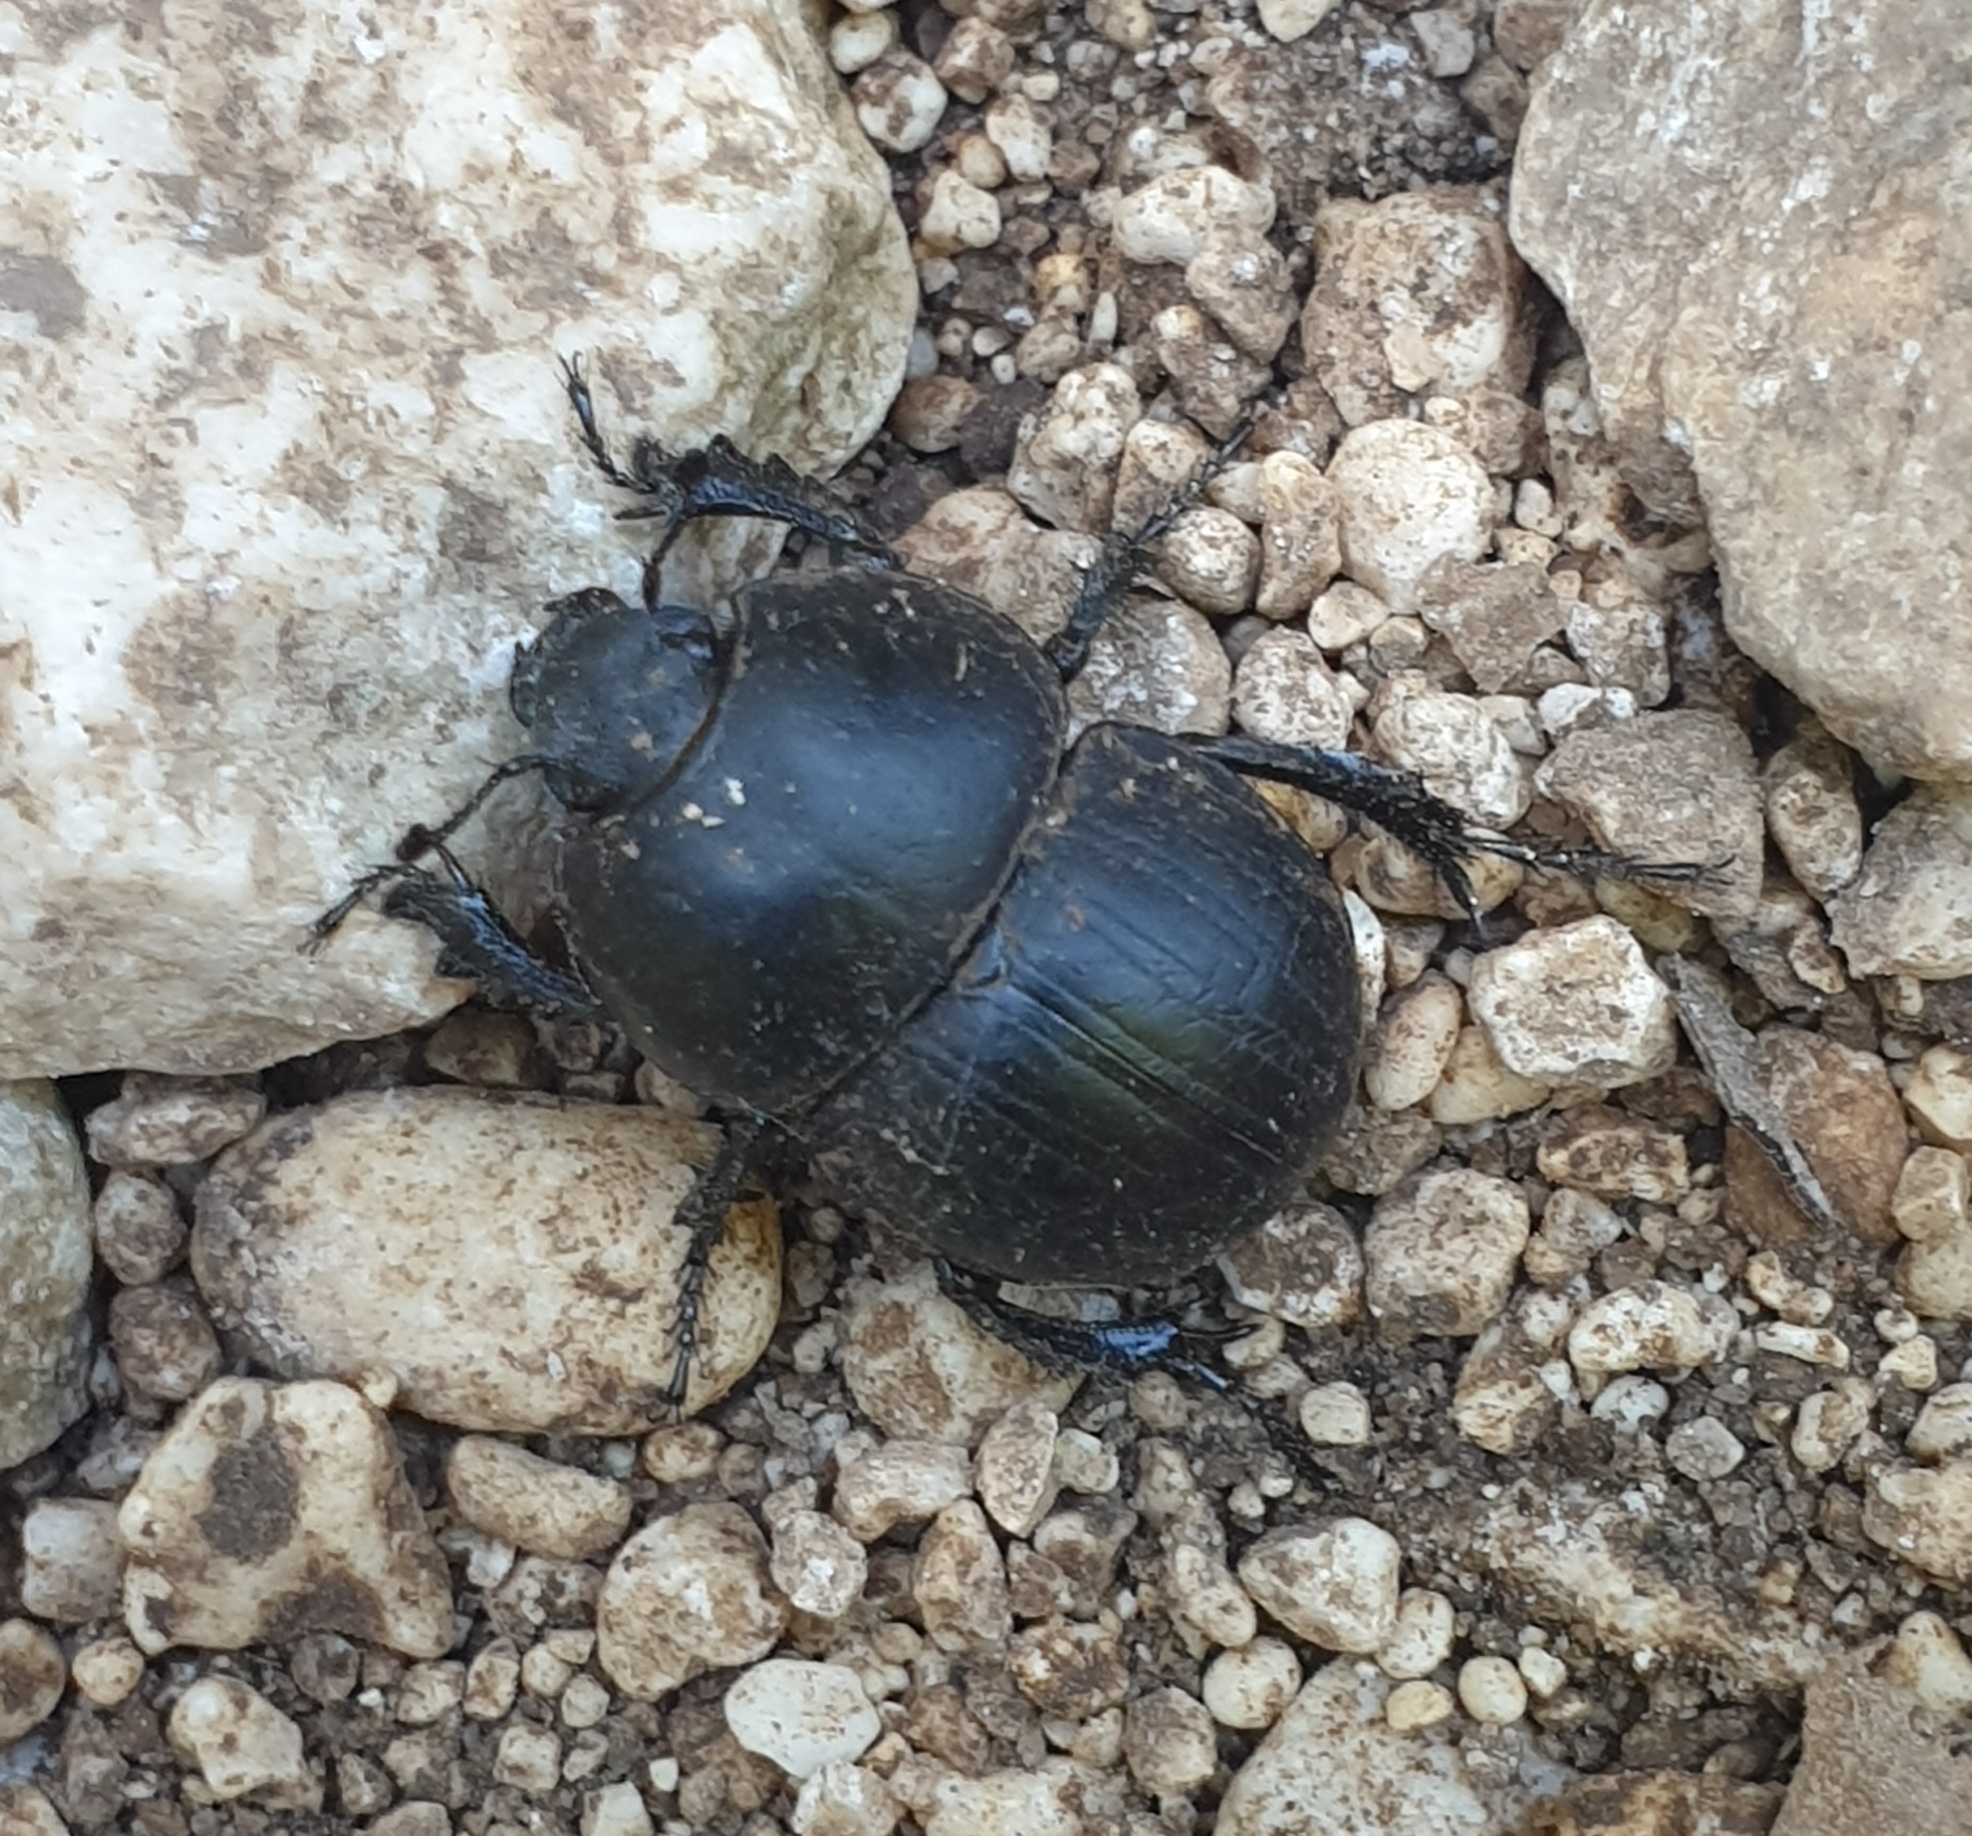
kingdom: Animalia
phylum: Arthropoda
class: Insecta
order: Coleoptera
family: Geotrupidae
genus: Baraudia
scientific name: Baraudia geminata
